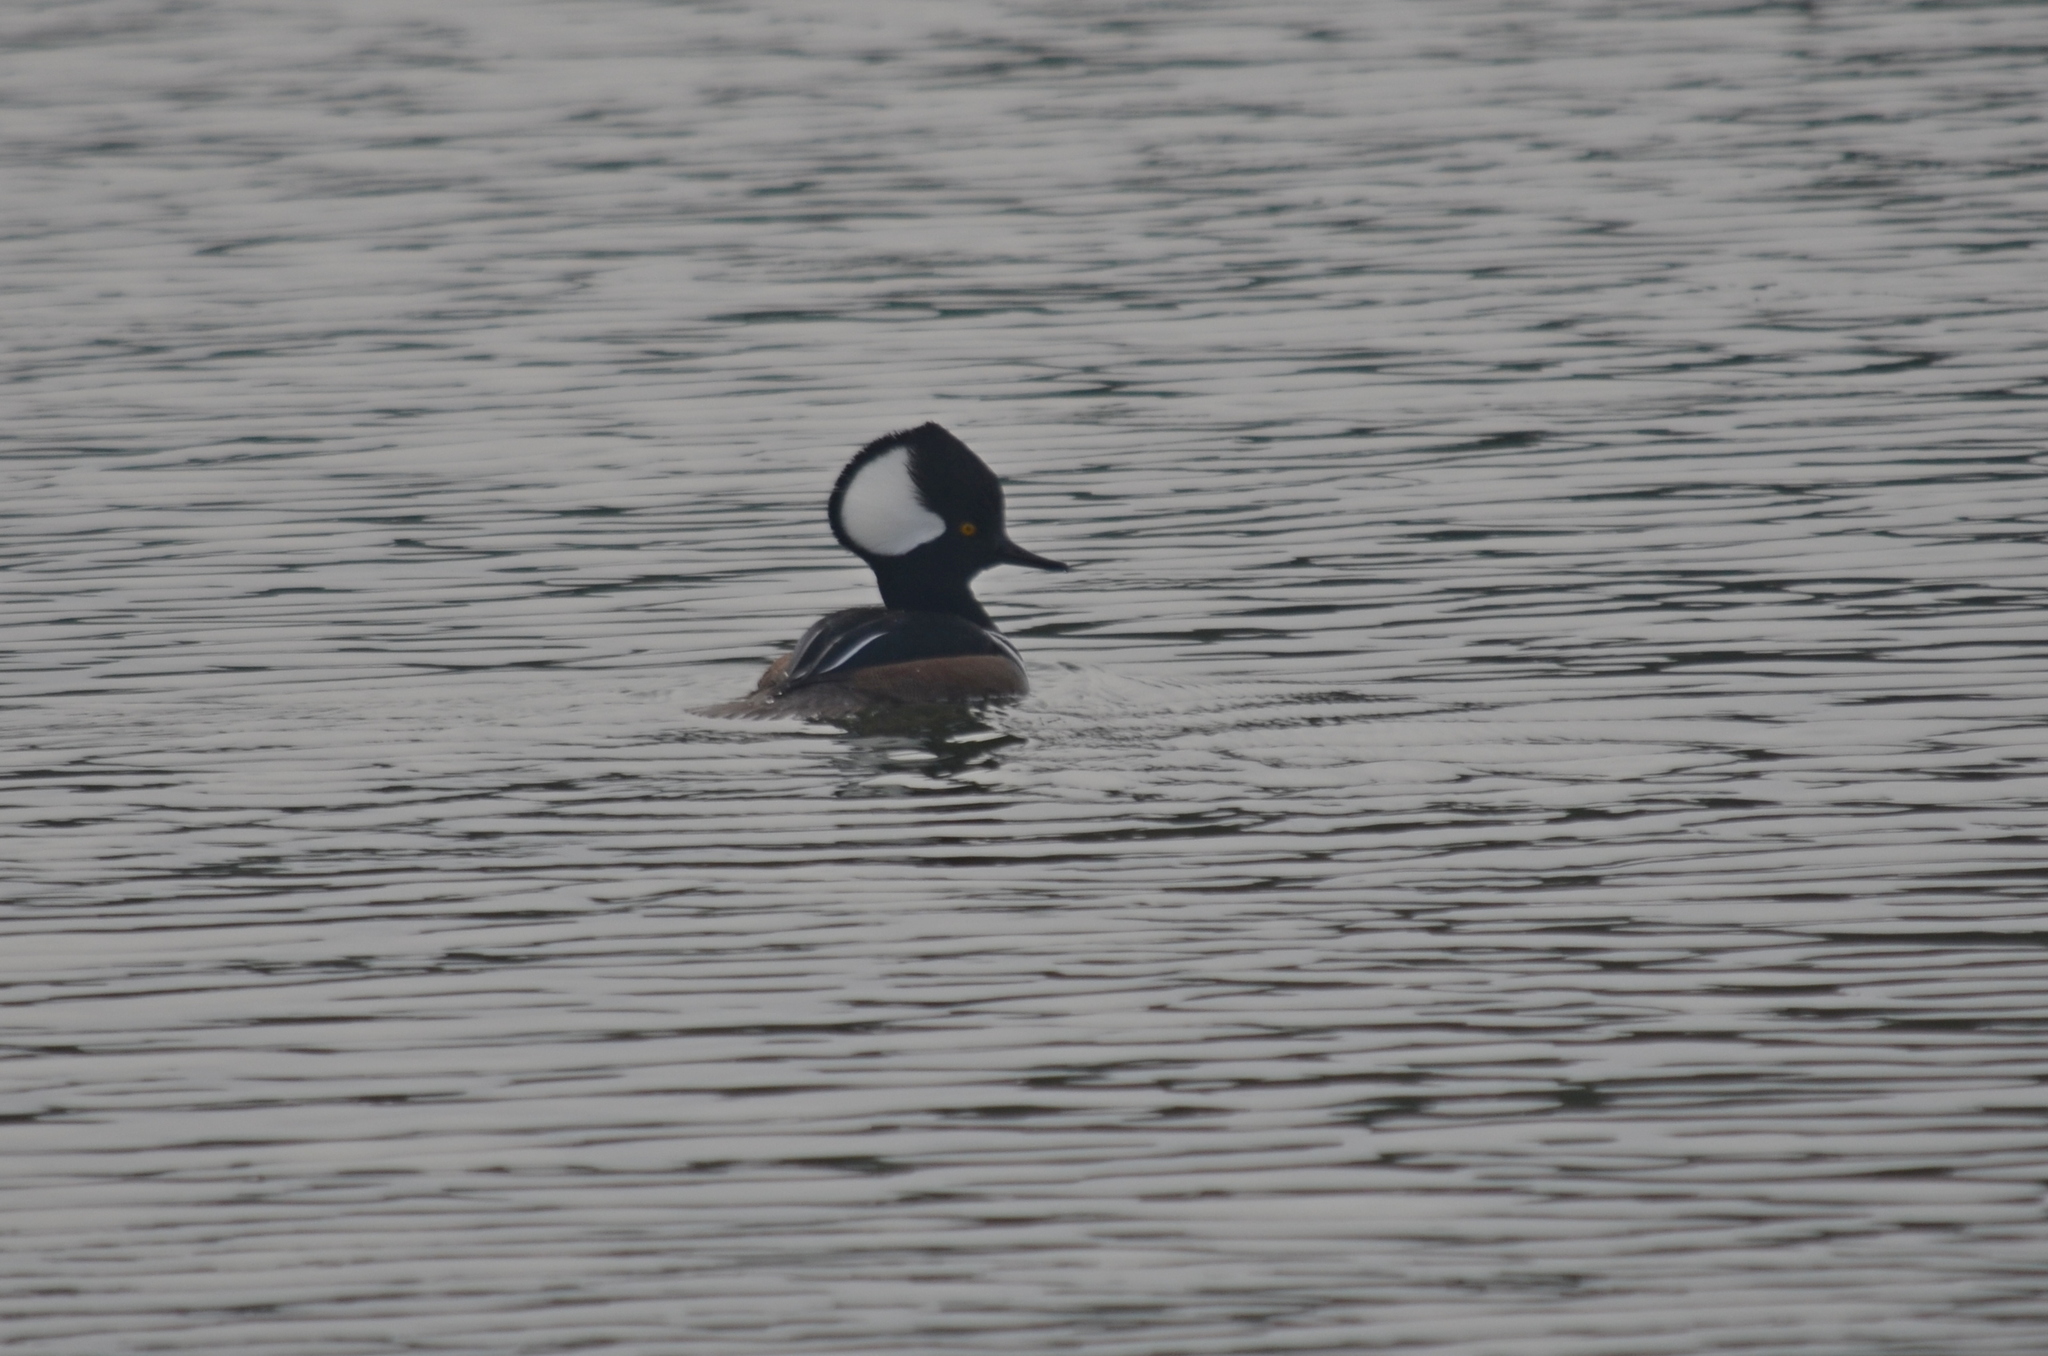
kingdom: Animalia
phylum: Chordata
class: Aves
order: Anseriformes
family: Anatidae
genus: Lophodytes
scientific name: Lophodytes cucullatus
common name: Hooded merganser
